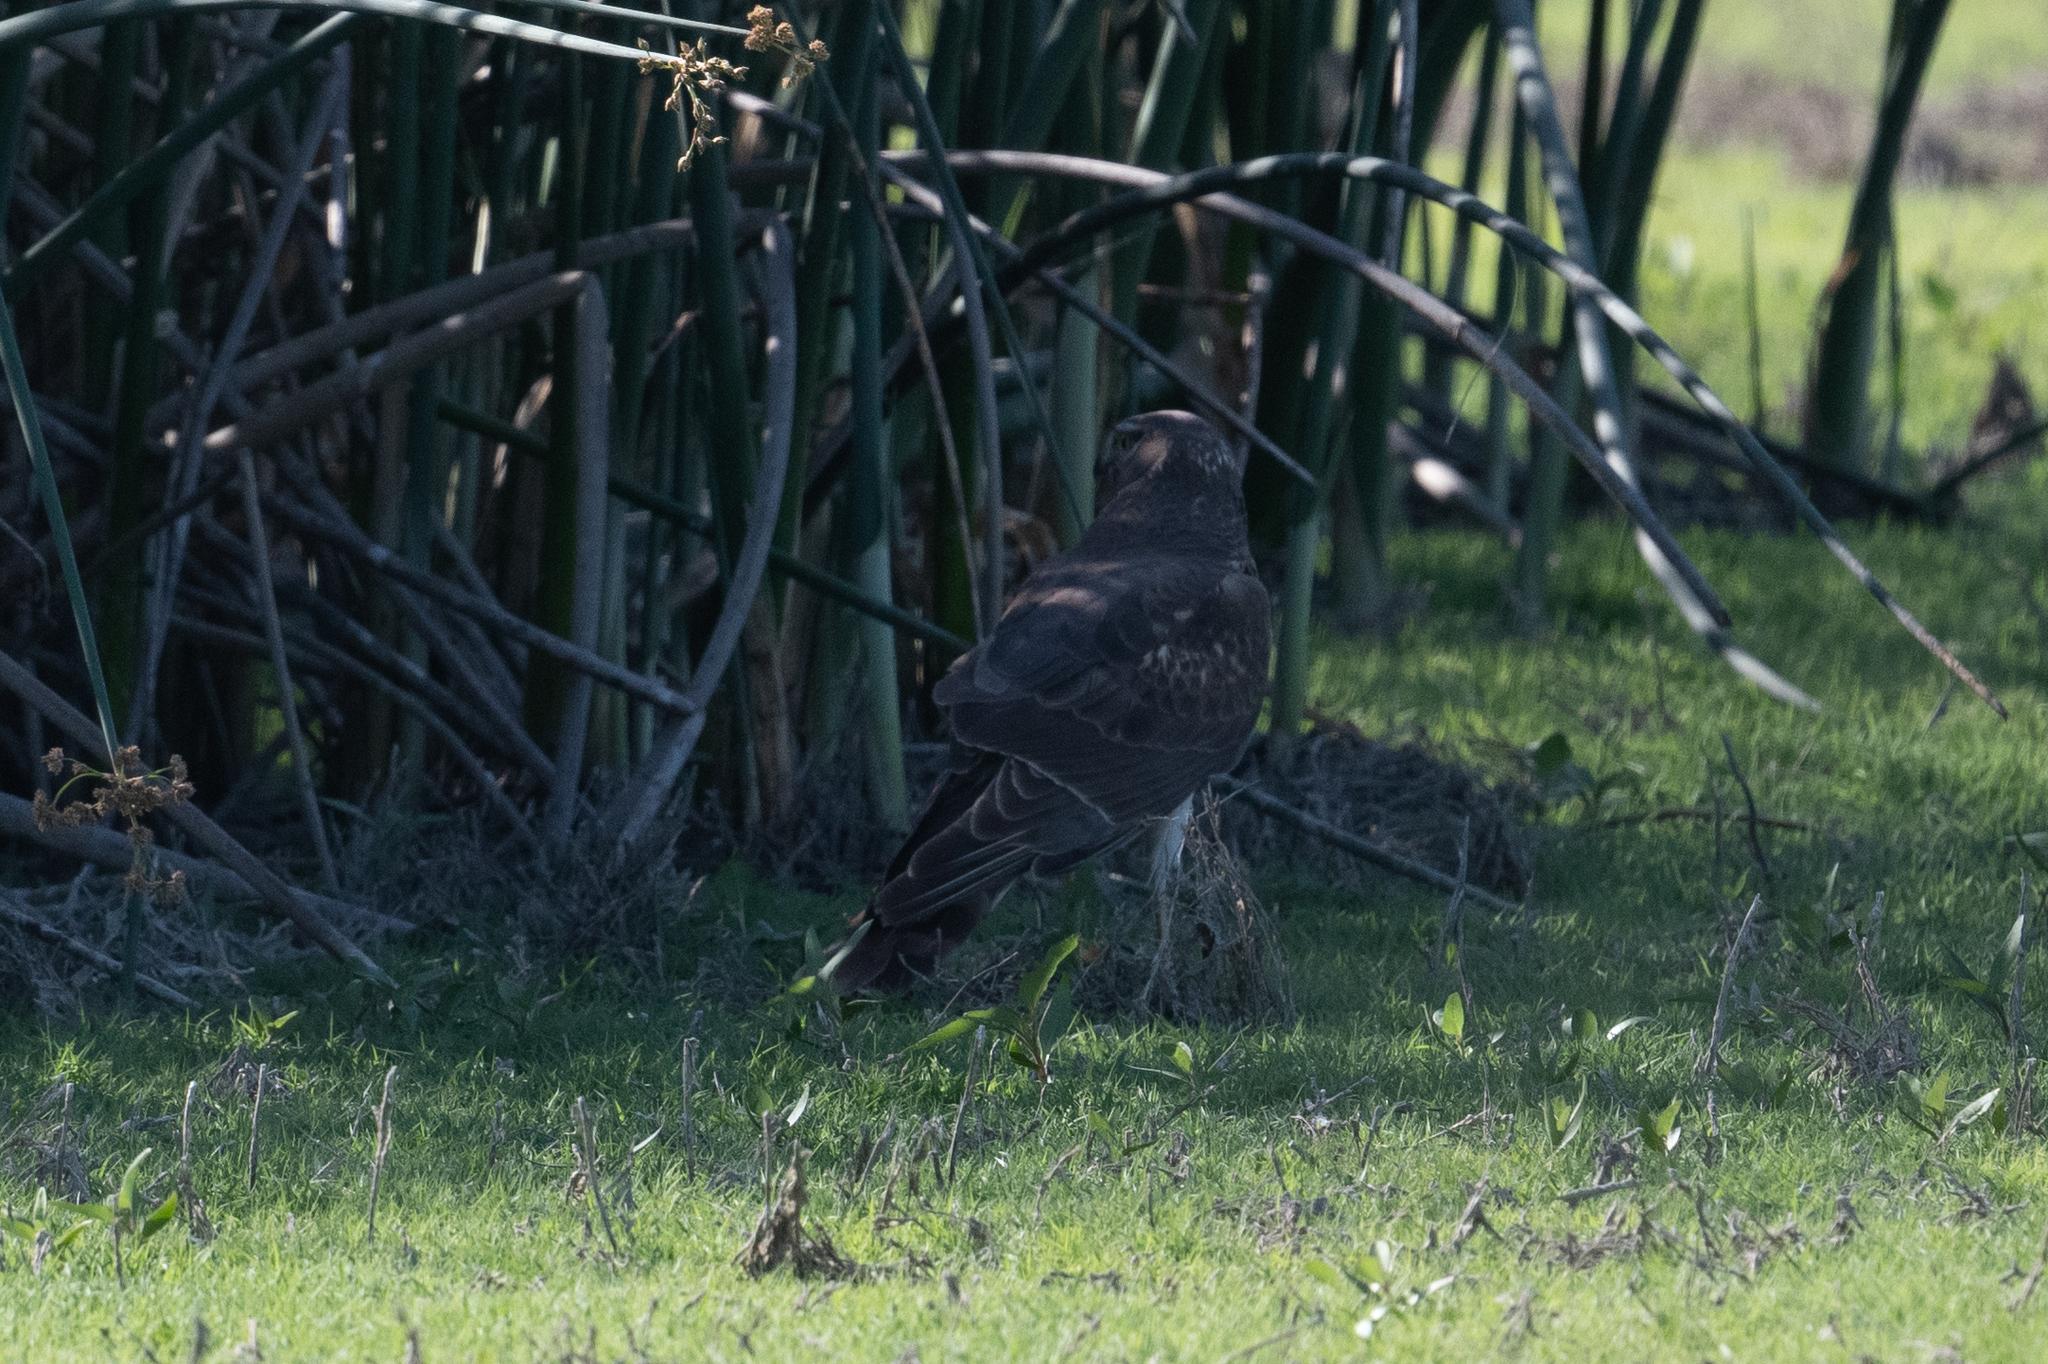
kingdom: Animalia
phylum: Chordata
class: Aves
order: Accipitriformes
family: Accipitridae
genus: Circus
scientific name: Circus cyaneus
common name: Hen harrier
